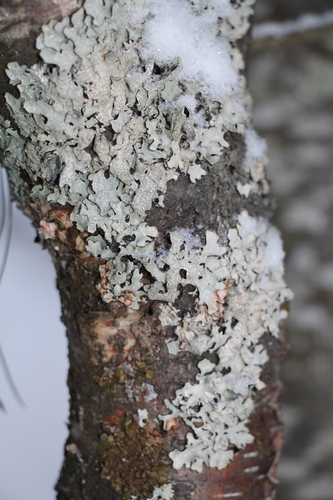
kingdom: Fungi
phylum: Ascomycota
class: Lecanoromycetes
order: Lecanorales
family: Parmeliaceae
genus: Parmelia
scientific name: Parmelia sulcata
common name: Netted shield lichen
